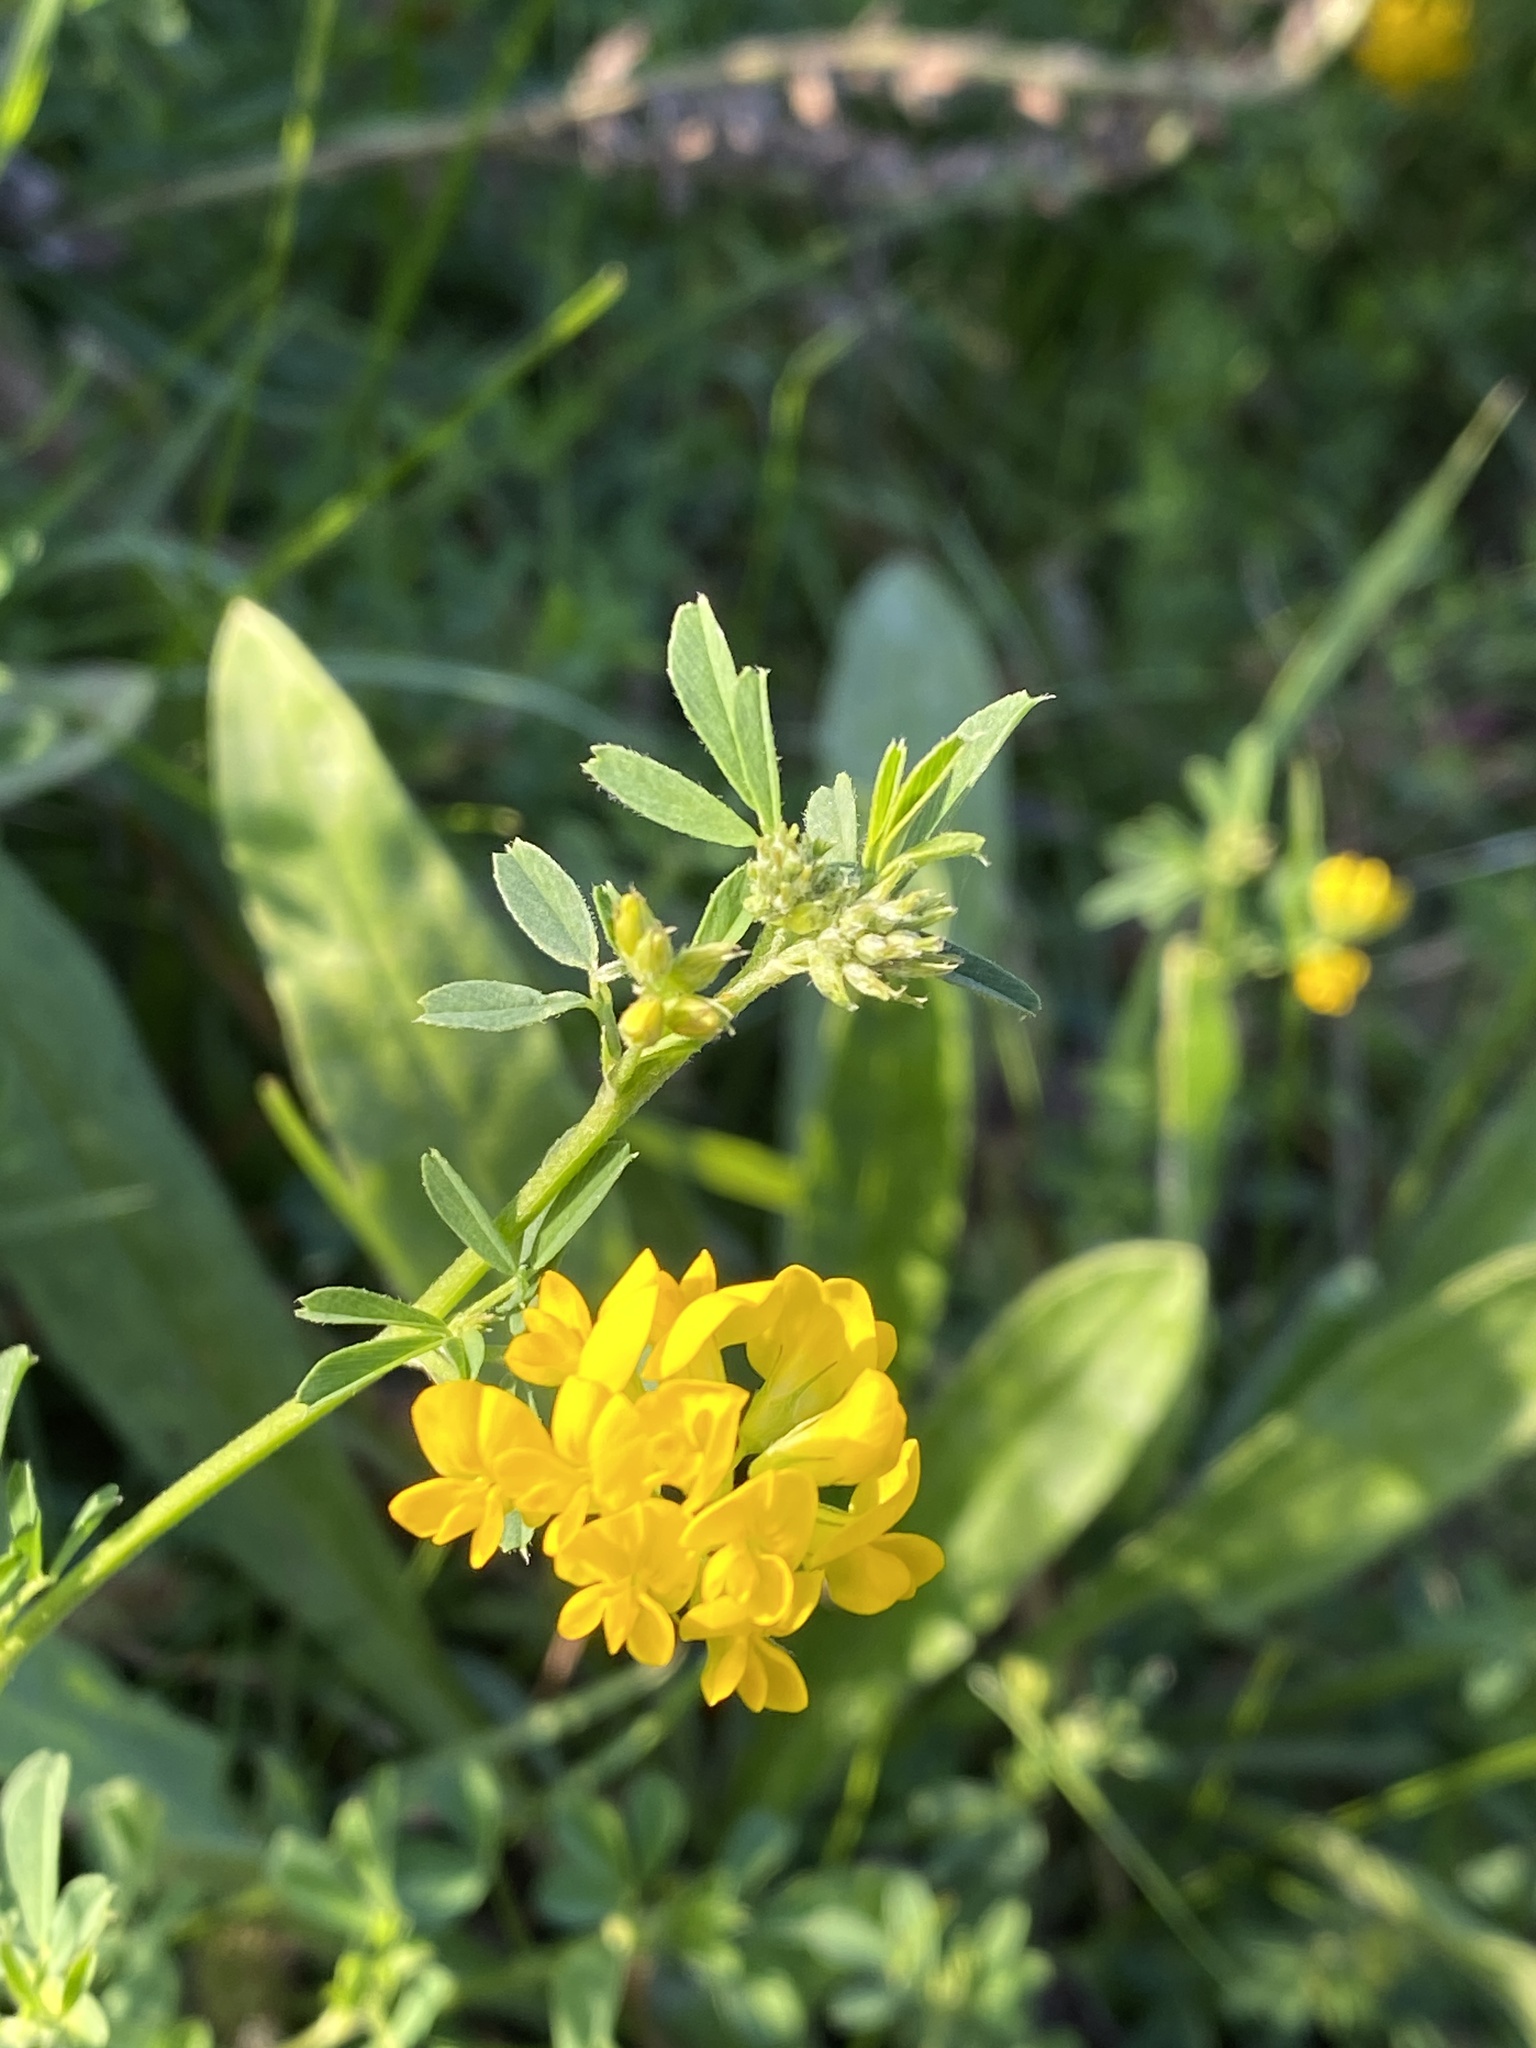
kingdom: Plantae
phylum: Tracheophyta
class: Magnoliopsida
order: Fabales
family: Fabaceae
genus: Medicago
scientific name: Medicago falcata
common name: Sickle medick
